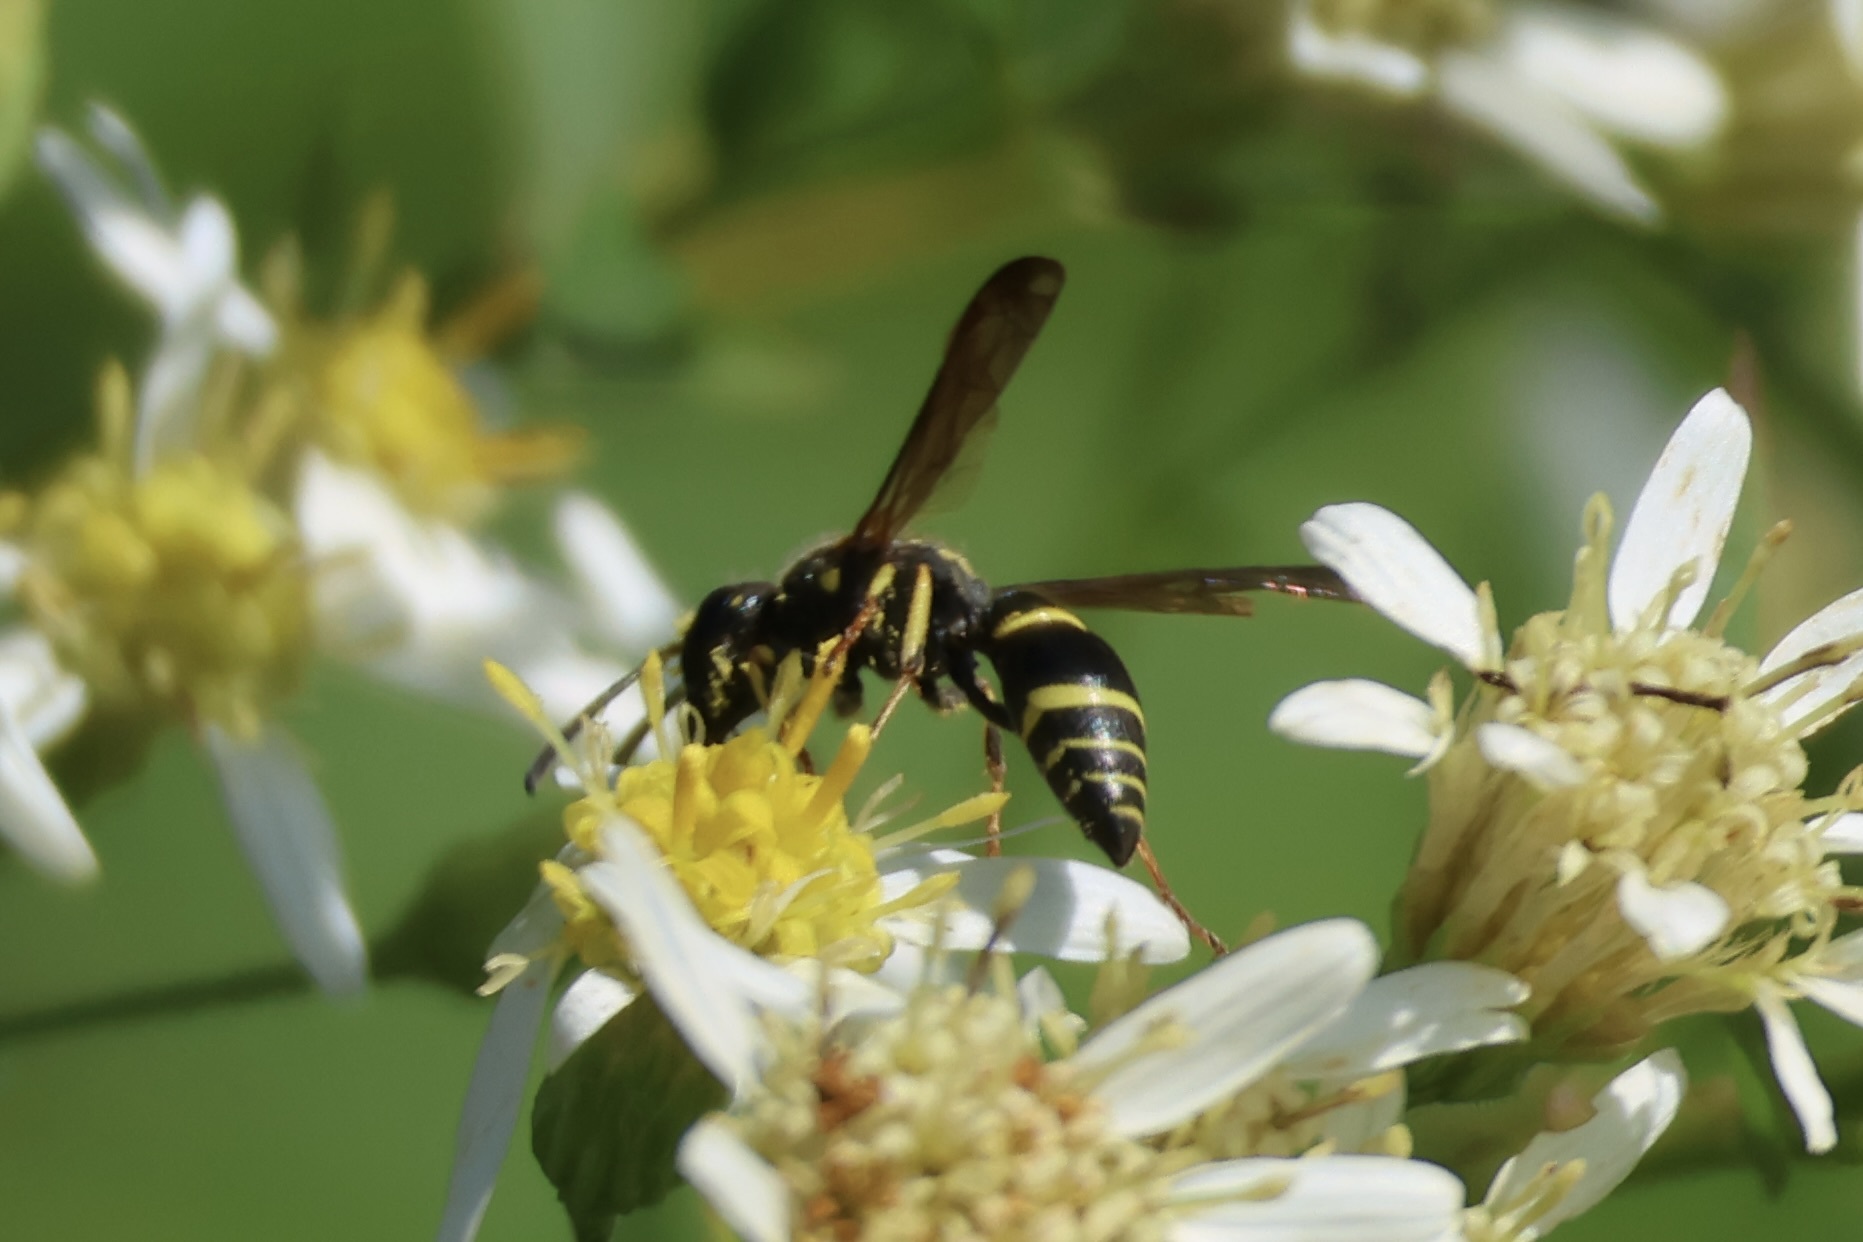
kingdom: Animalia
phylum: Arthropoda
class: Insecta
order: Hymenoptera
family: Vespidae
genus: Ancistrocerus
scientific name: Ancistrocerus adiabatus
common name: Bramble mason wasp
